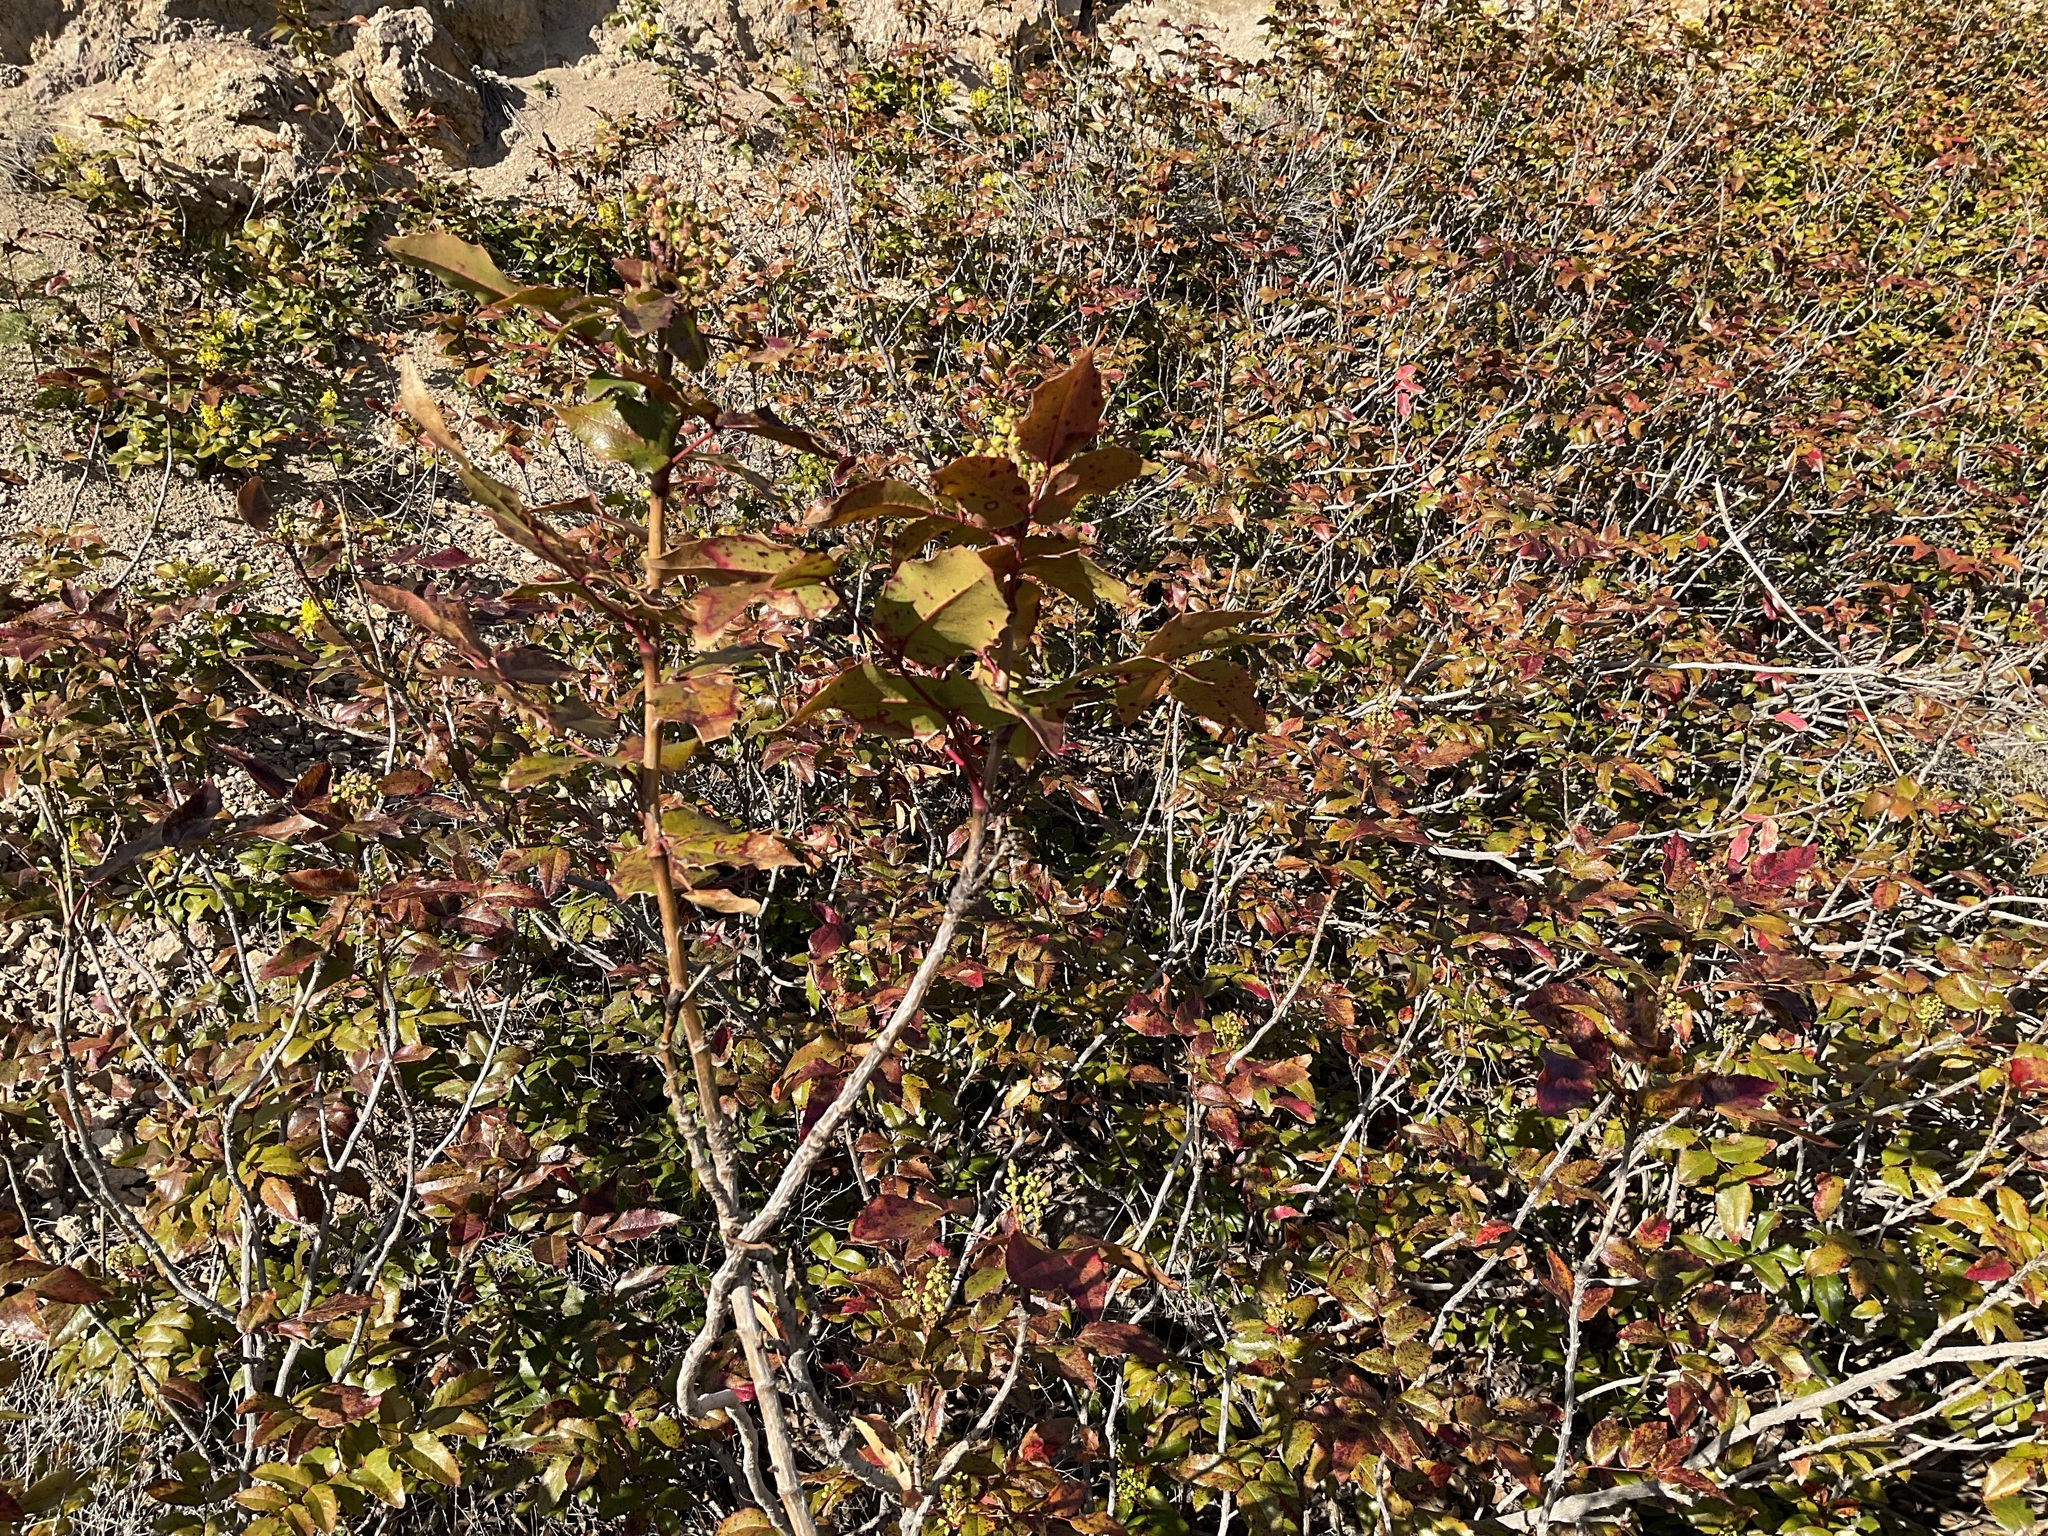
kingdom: Plantae
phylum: Tracheophyta
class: Magnoliopsida
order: Ranunculales
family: Berberidaceae
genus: Mahonia
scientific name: Mahonia aquifolium
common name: Oregon-grape
